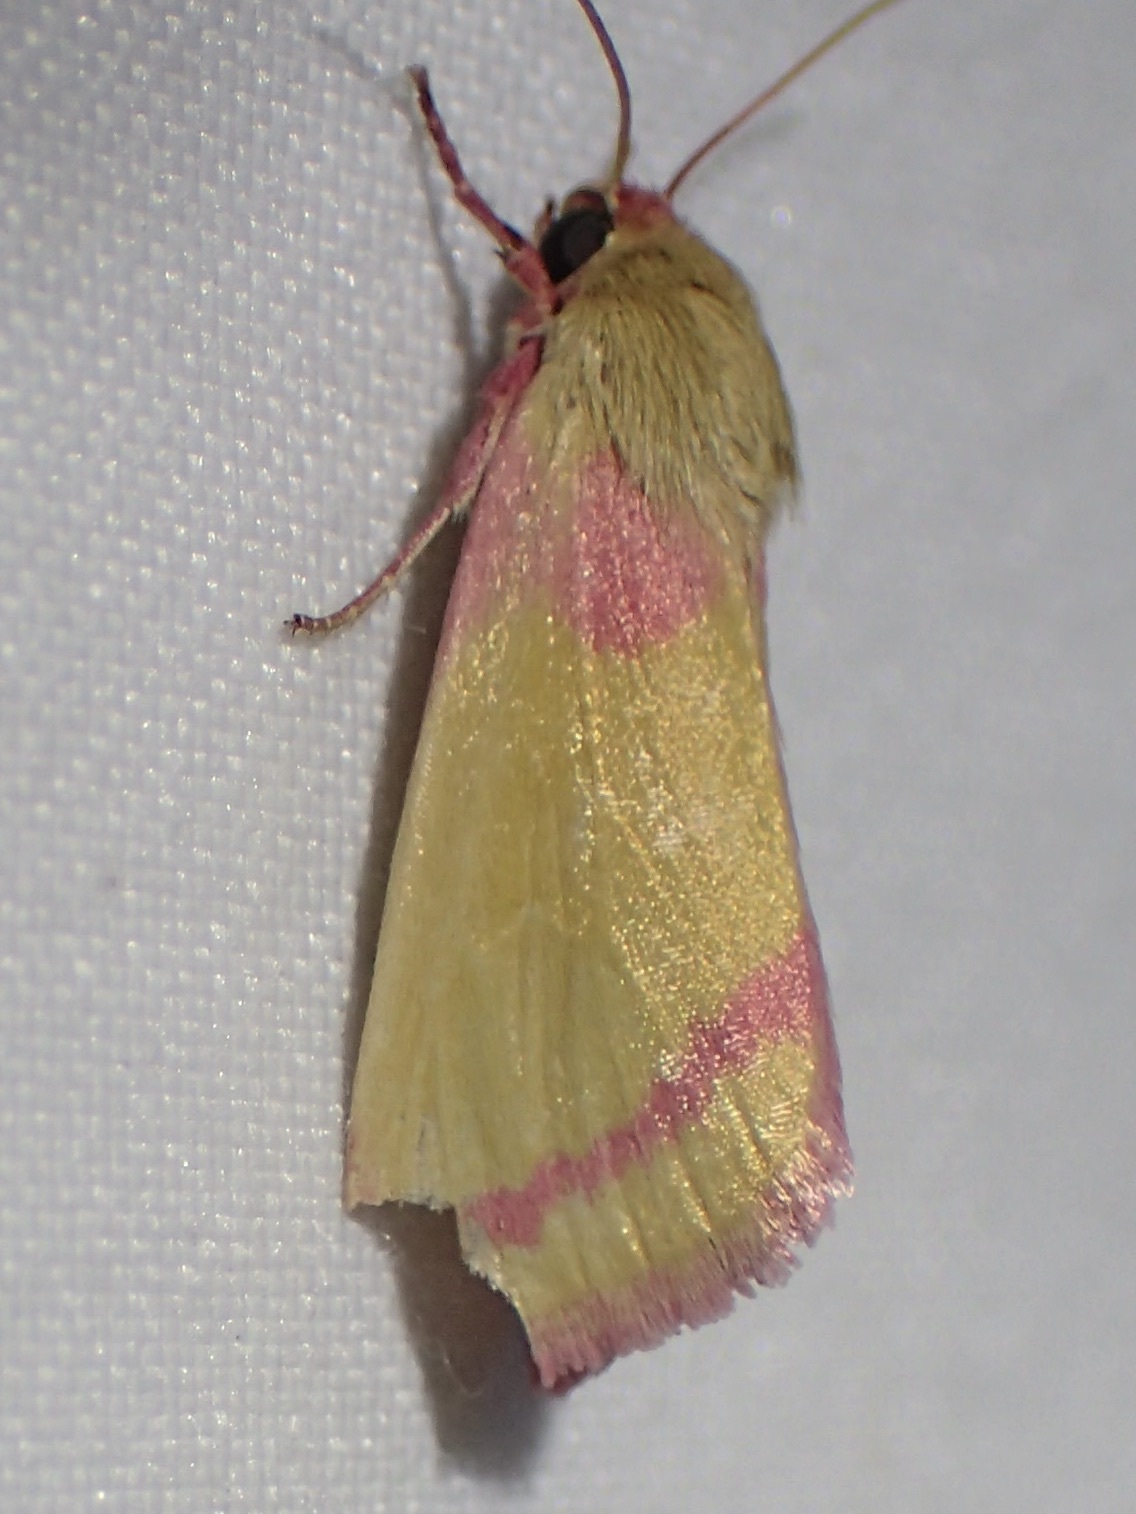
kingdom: Animalia
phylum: Arthropoda
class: Insecta
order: Lepidoptera
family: Noctuidae
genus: Heliocheilus
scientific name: Heliocheilus toralis
